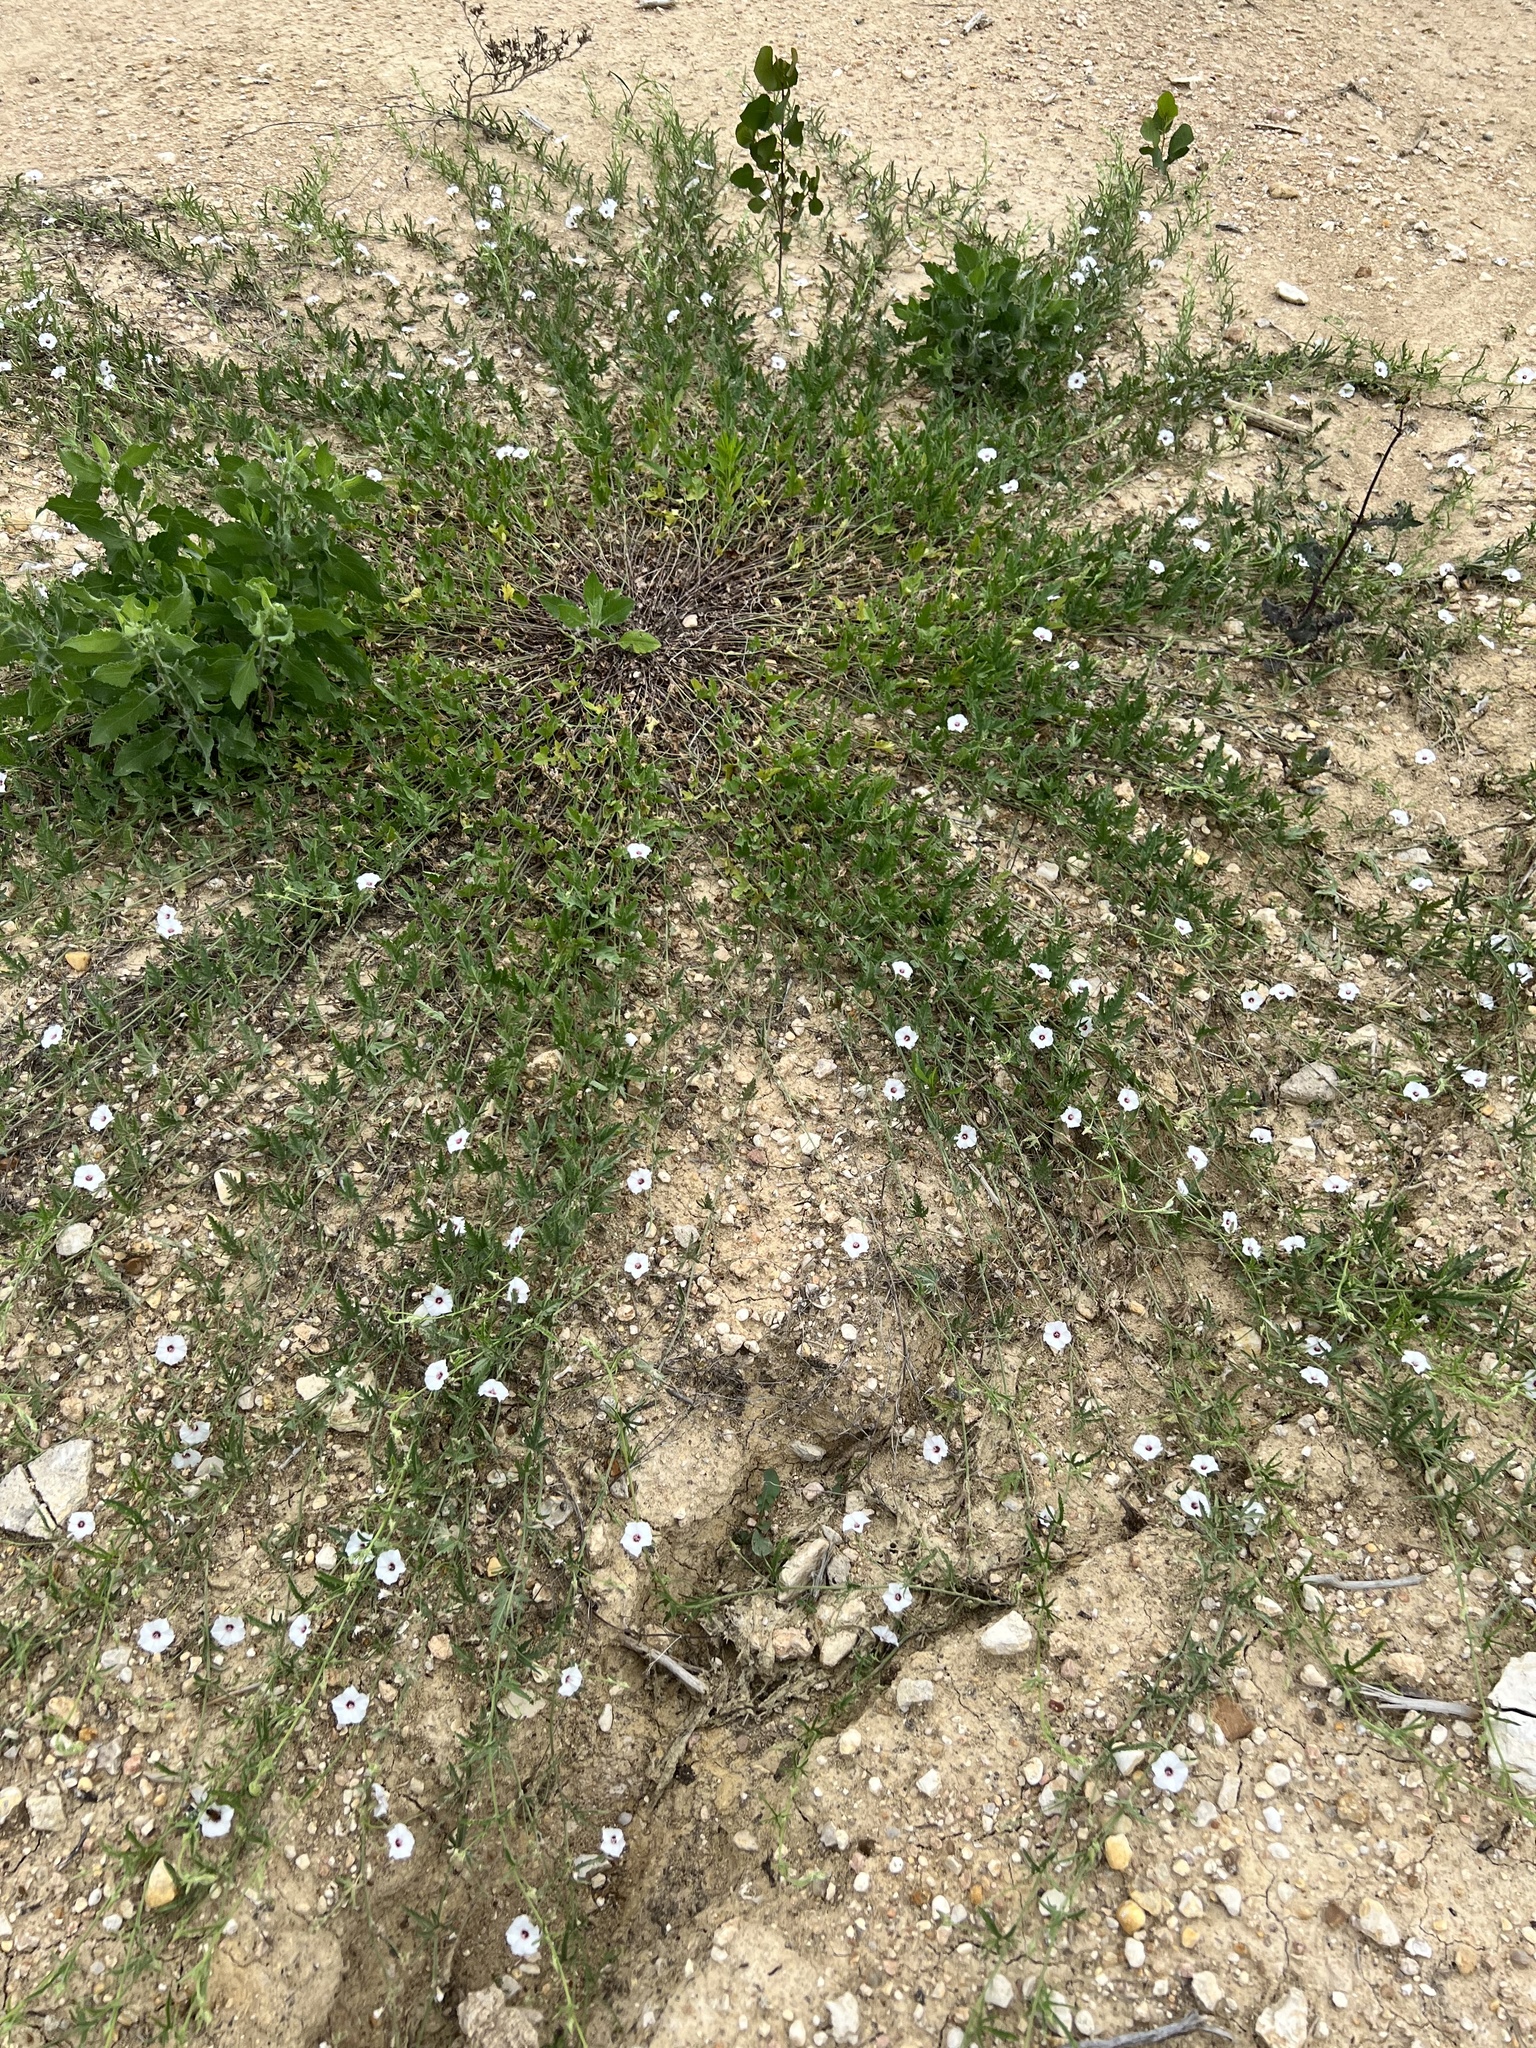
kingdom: Plantae
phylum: Tracheophyta
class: Magnoliopsida
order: Solanales
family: Convolvulaceae
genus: Convolvulus
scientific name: Convolvulus equitans
